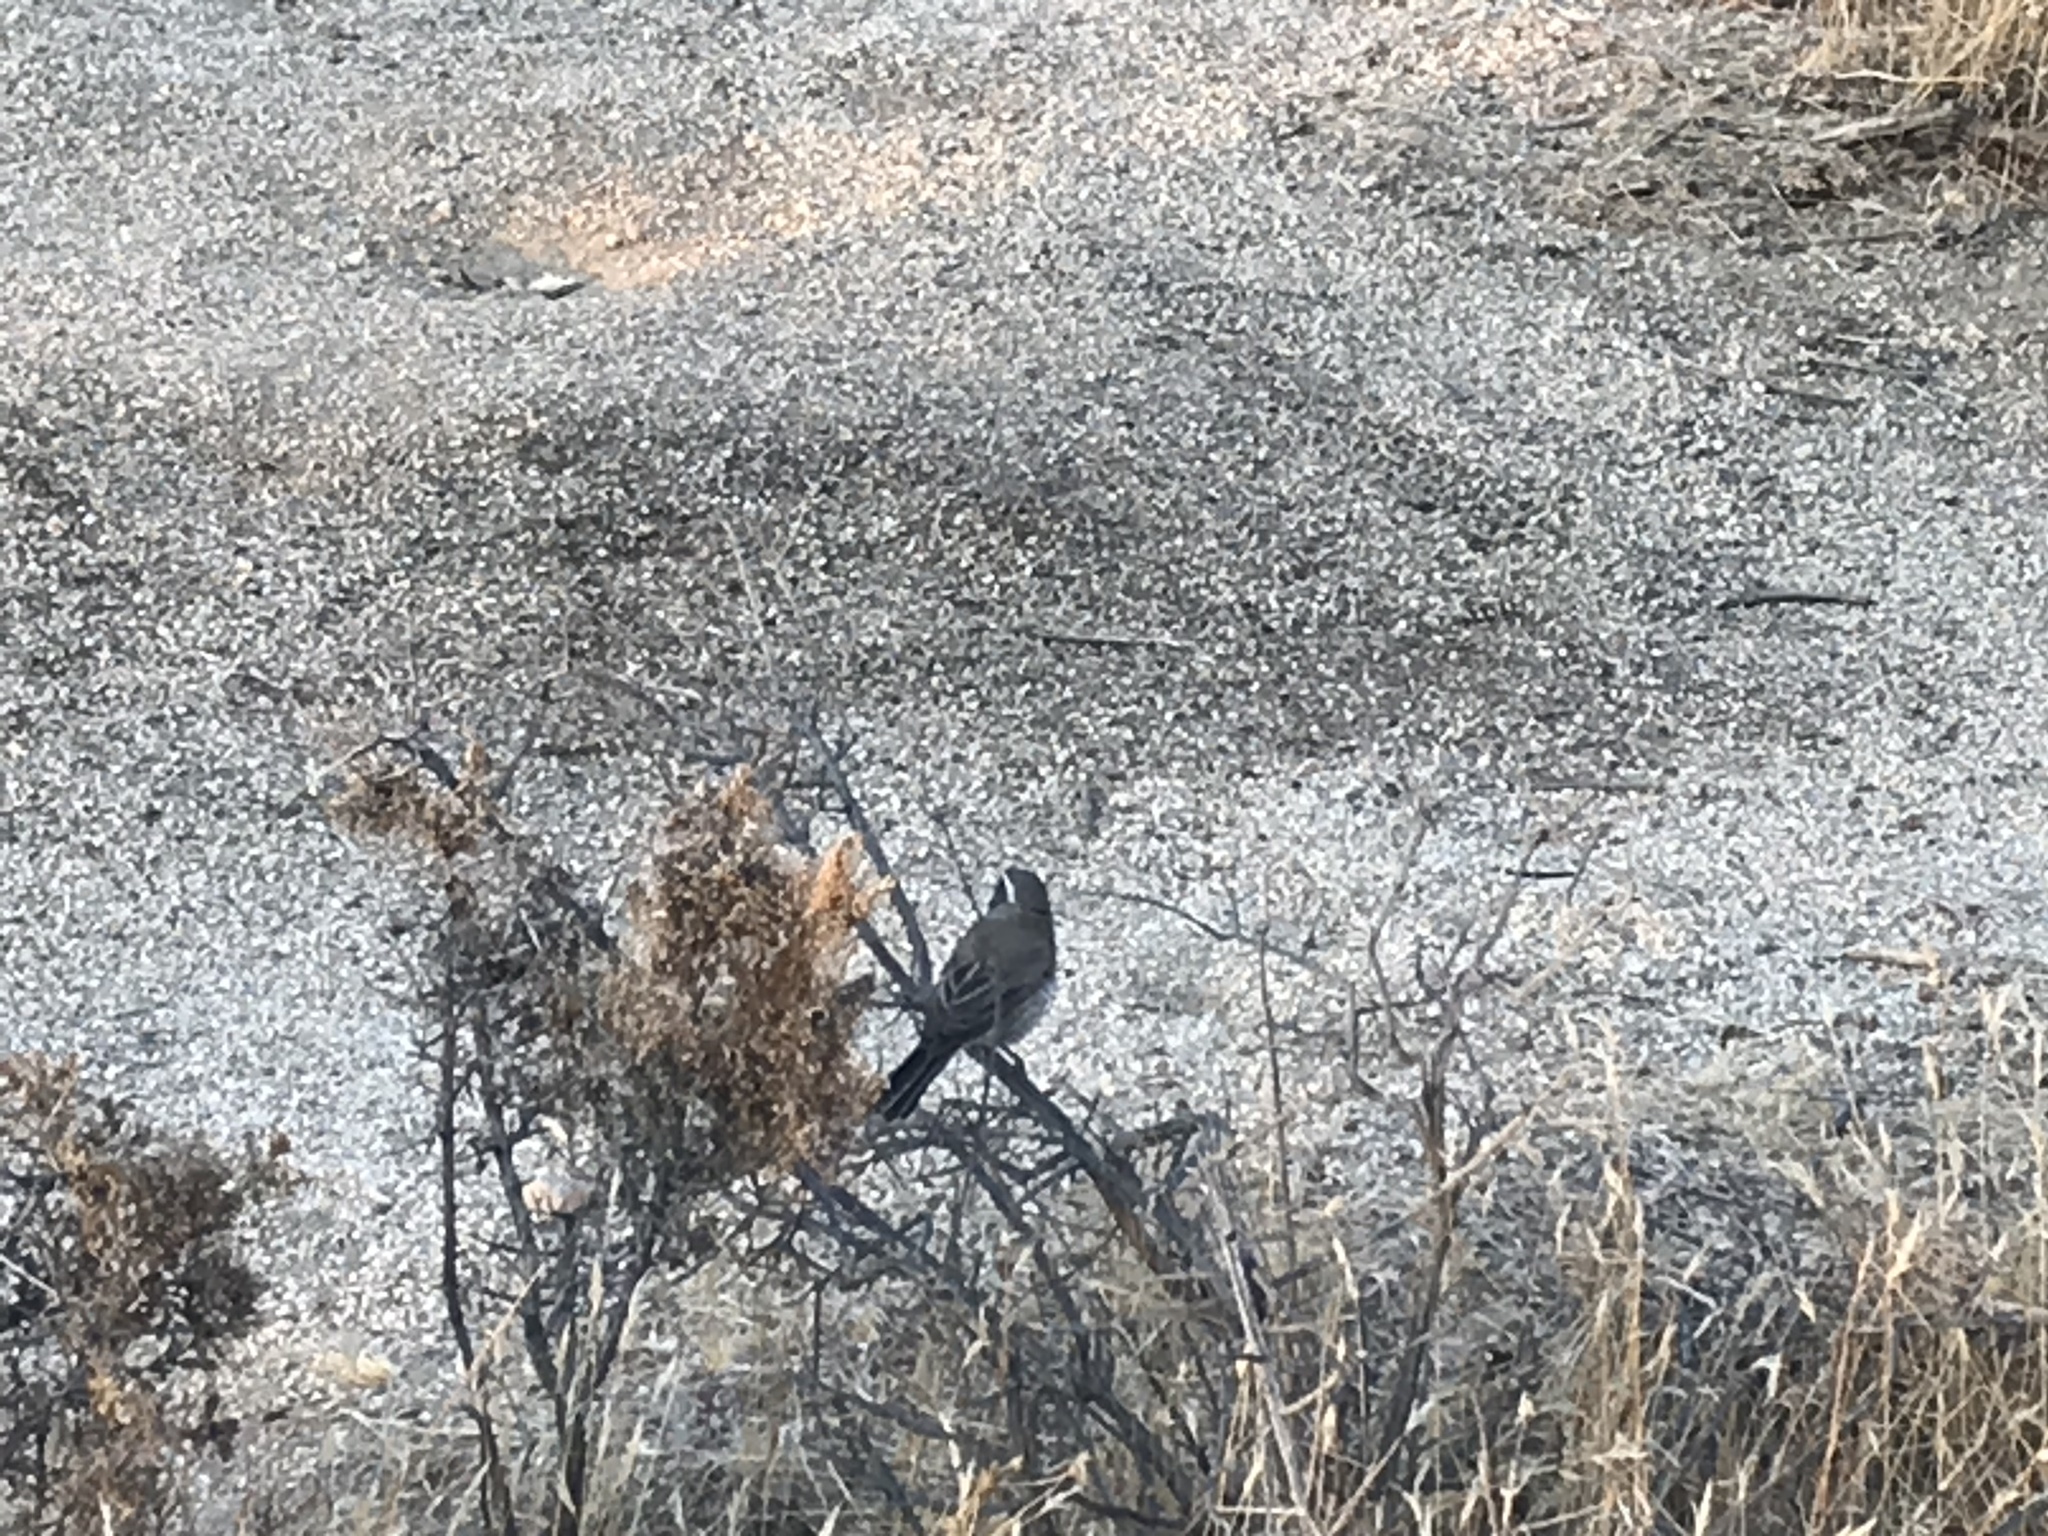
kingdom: Animalia
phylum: Chordata
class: Aves
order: Passeriformes
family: Passerellidae
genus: Amphispiza
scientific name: Amphispiza bilineata
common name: Black-throated sparrow
